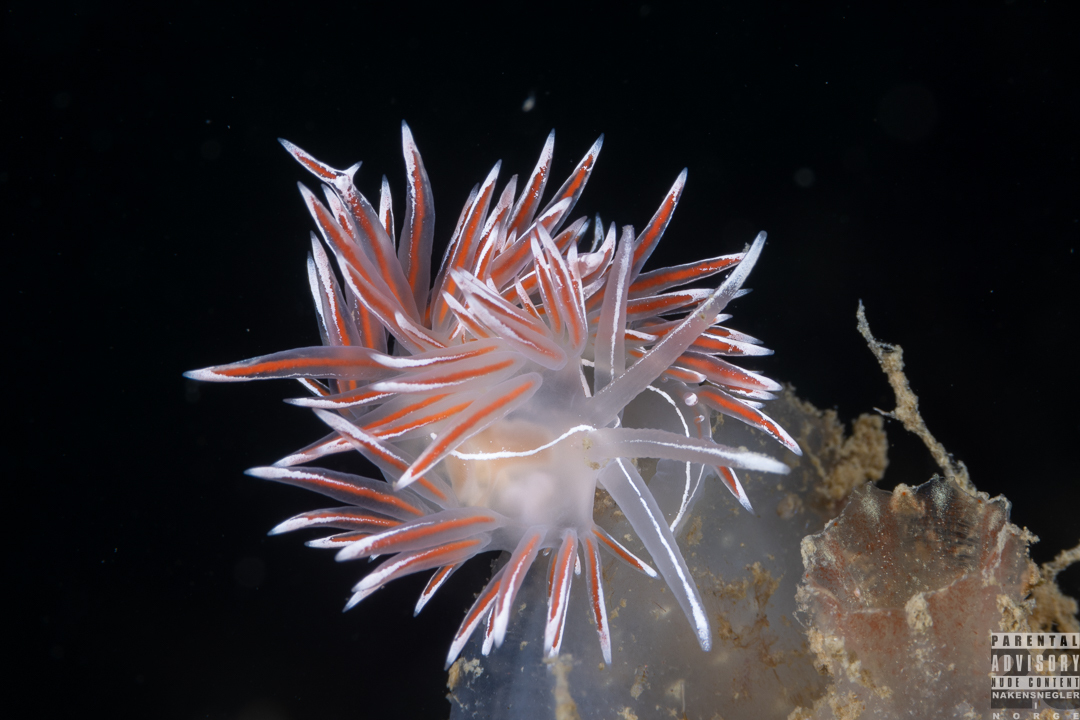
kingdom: Animalia
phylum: Mollusca
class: Gastropoda
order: Nudibranchia
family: Coryphellidae
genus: Coryphella
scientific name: Coryphella lineata
